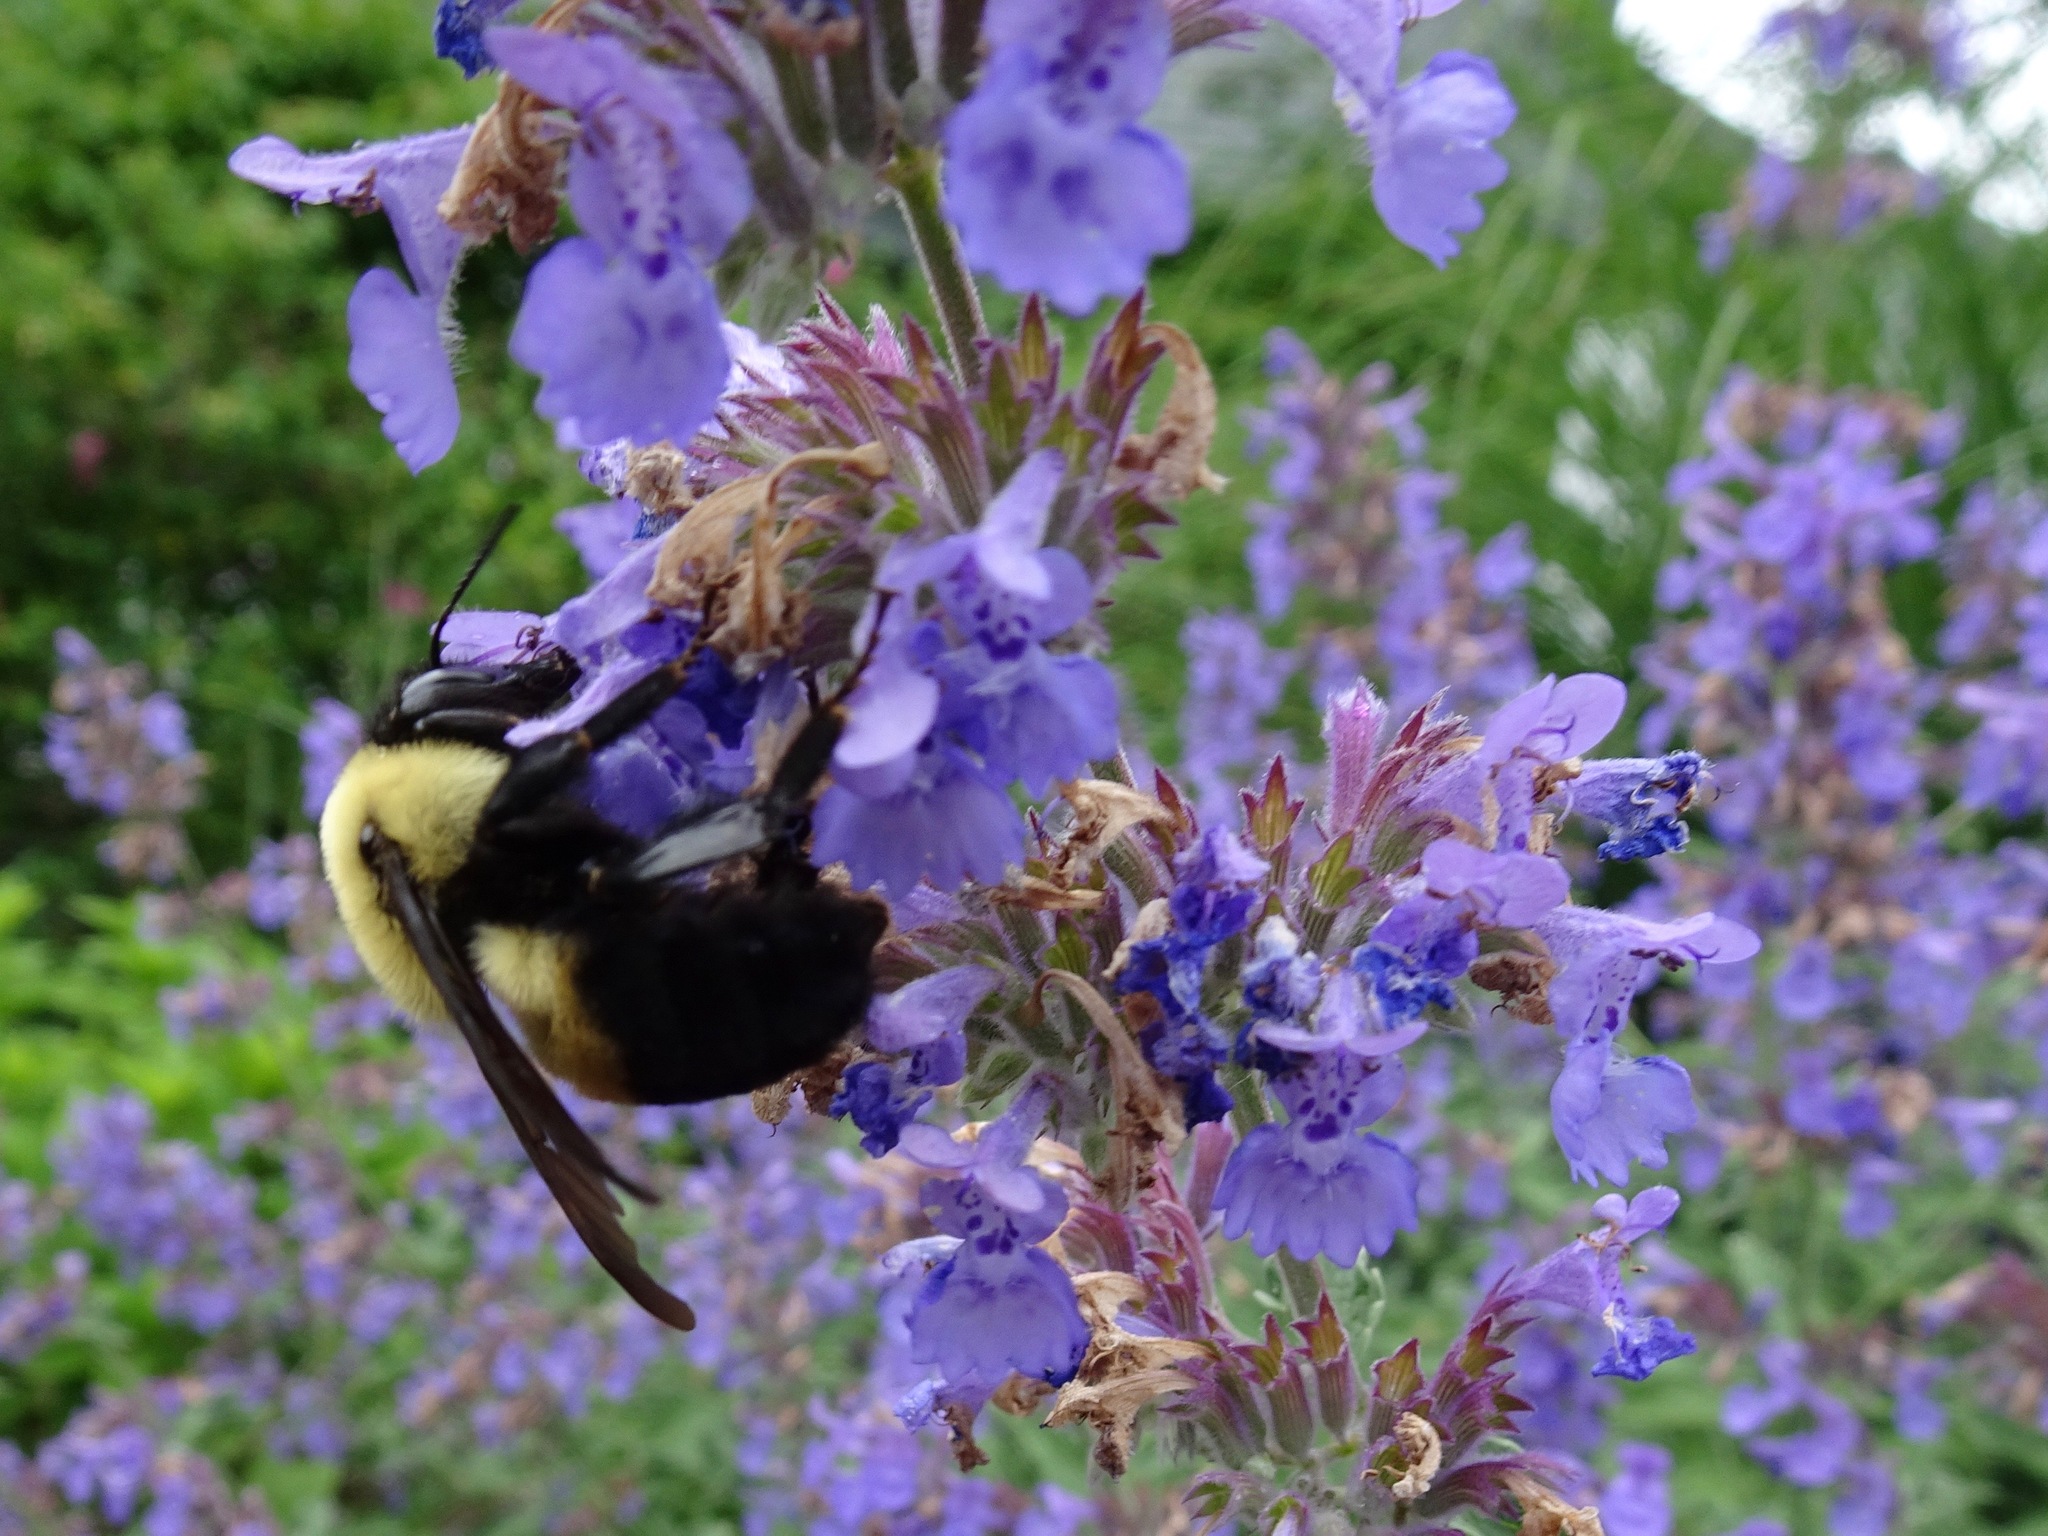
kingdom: Animalia
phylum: Arthropoda
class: Insecta
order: Hymenoptera
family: Apidae
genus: Bombus
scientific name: Bombus griseocollis
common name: Brown-belted bumble bee
